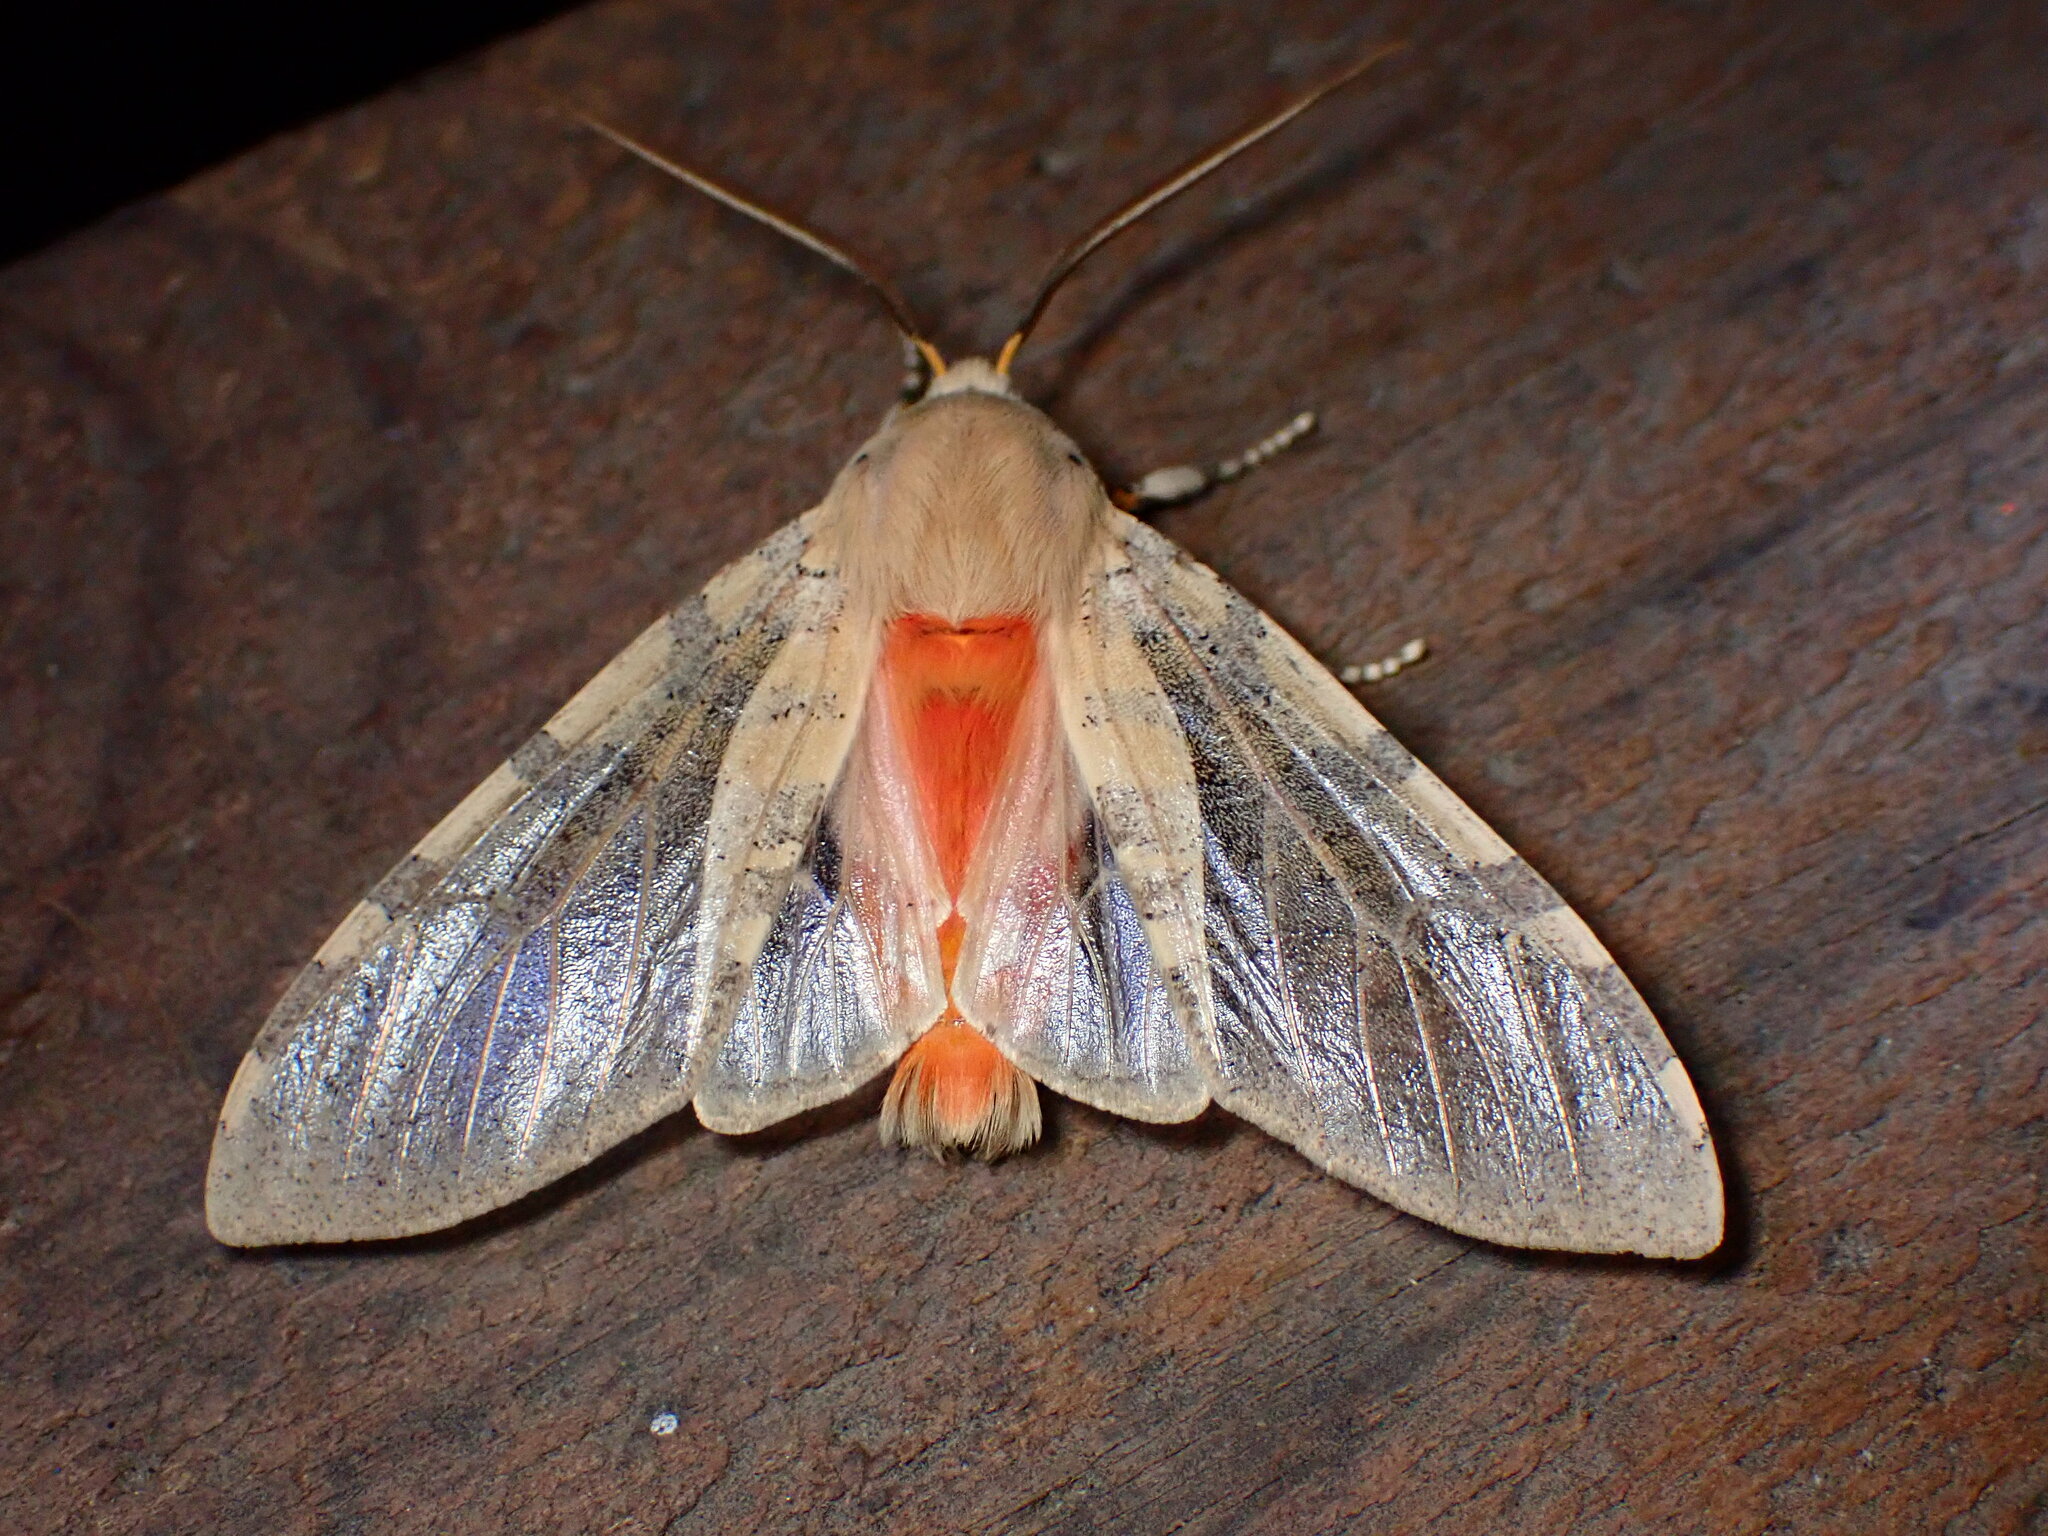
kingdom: Animalia
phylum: Arthropoda
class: Insecta
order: Lepidoptera
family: Erebidae
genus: Hemihyalea
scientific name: Hemihyalea edwardsii
